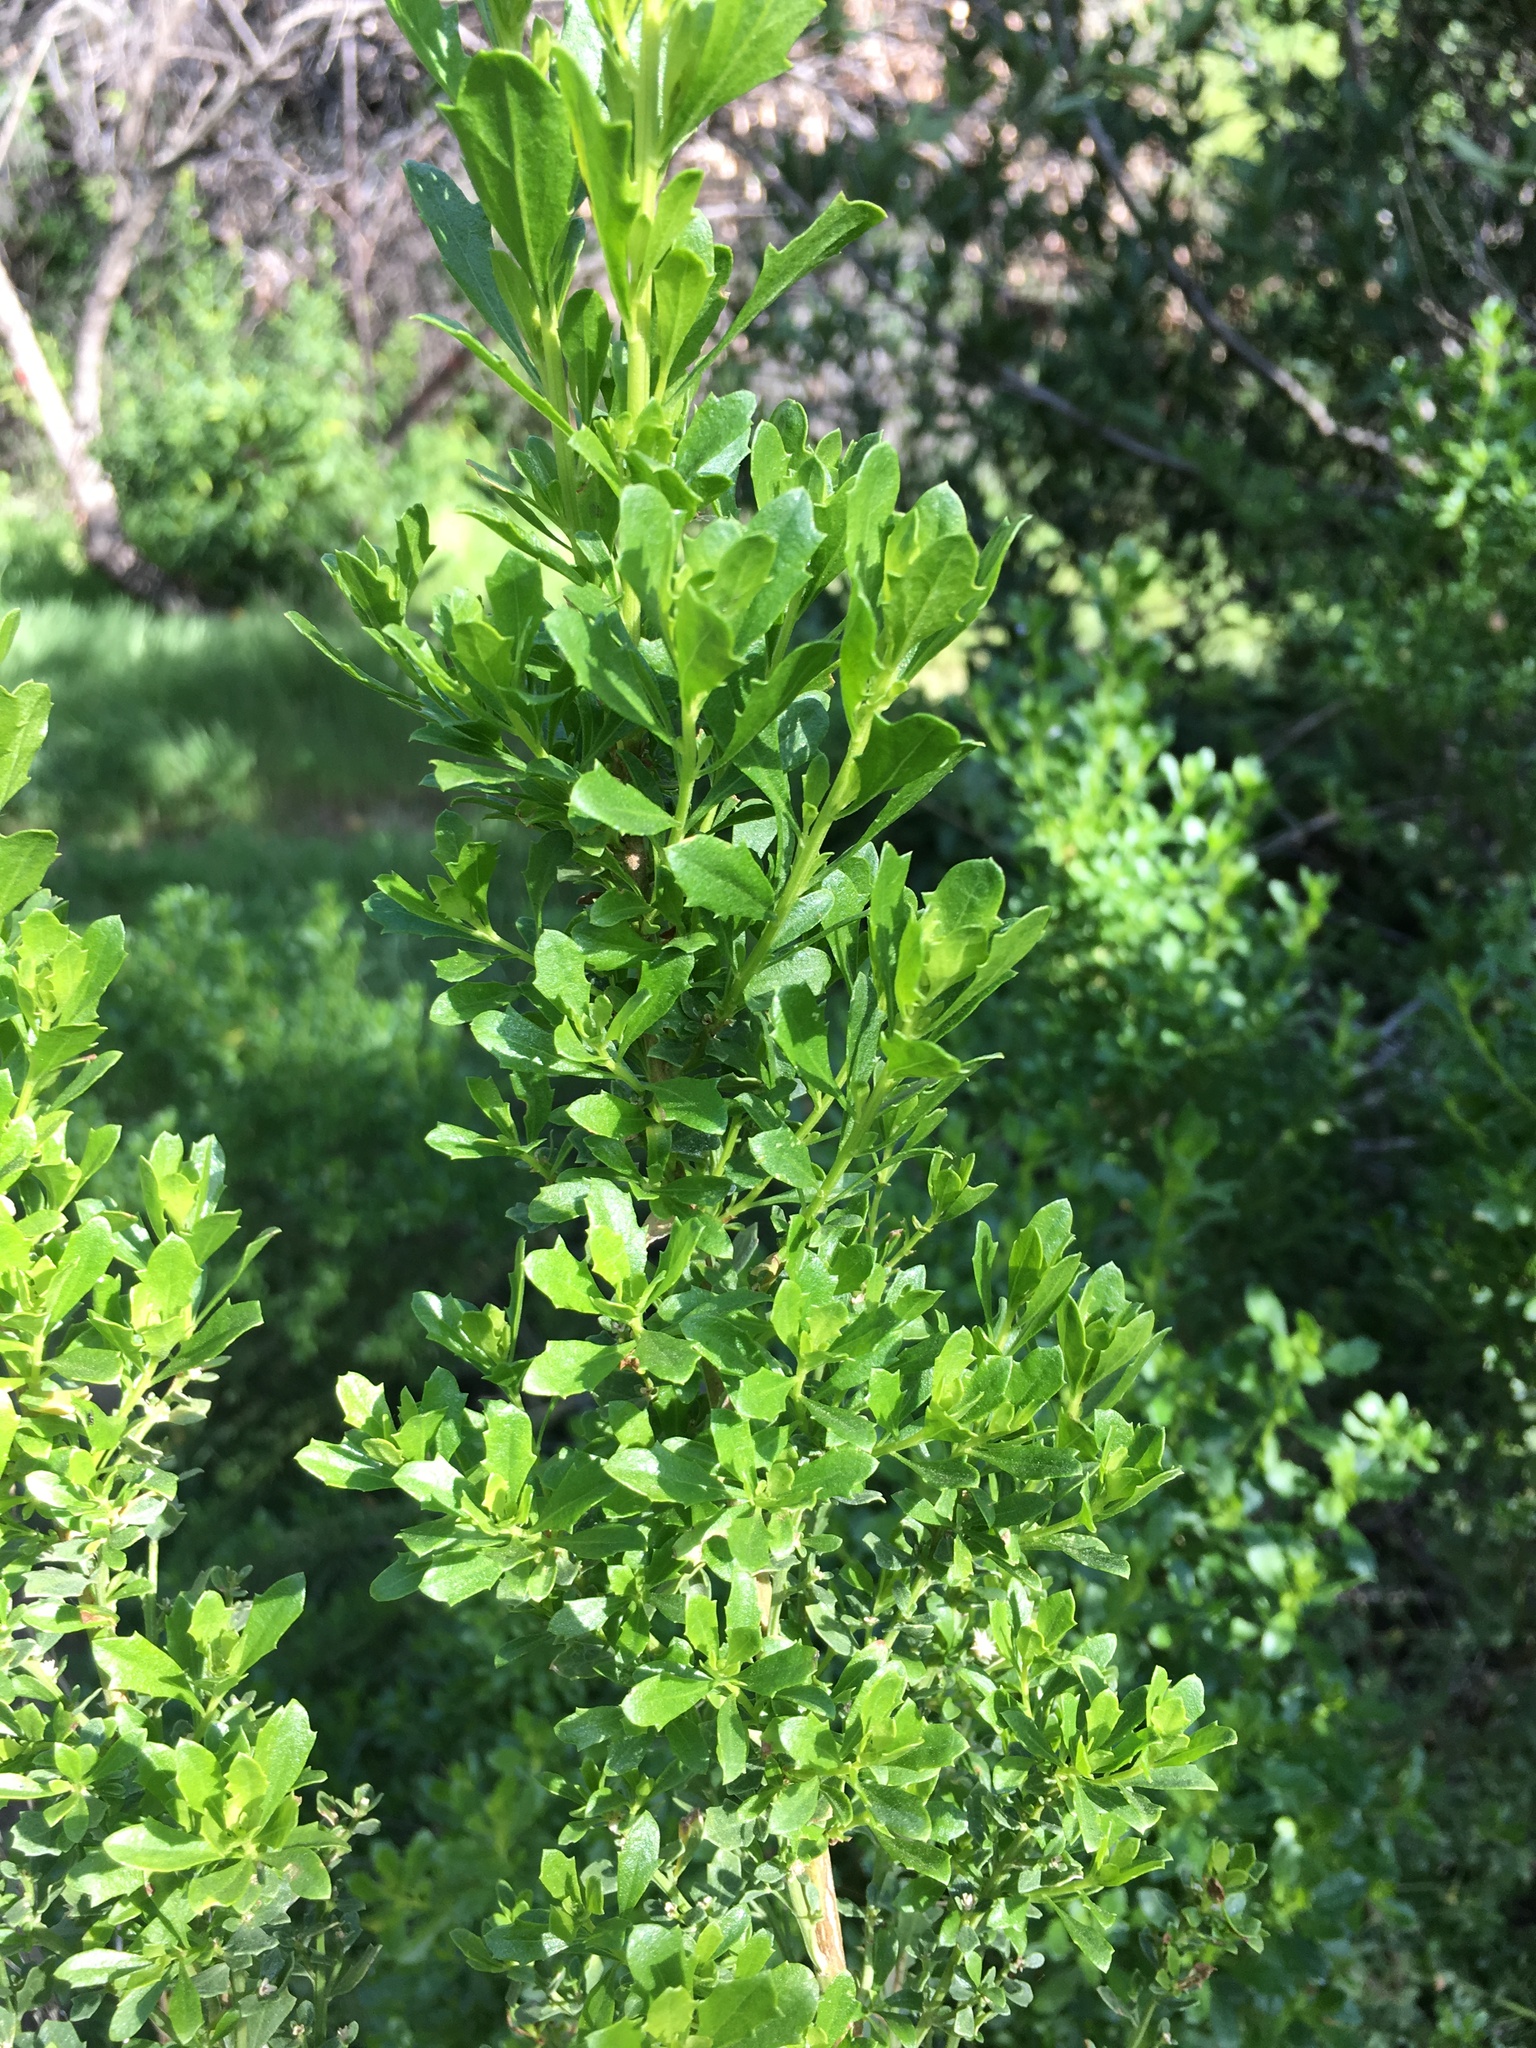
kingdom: Plantae
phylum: Tracheophyta
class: Magnoliopsida
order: Asterales
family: Asteraceae
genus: Baccharis
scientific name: Baccharis pilularis
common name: Coyotebrush
